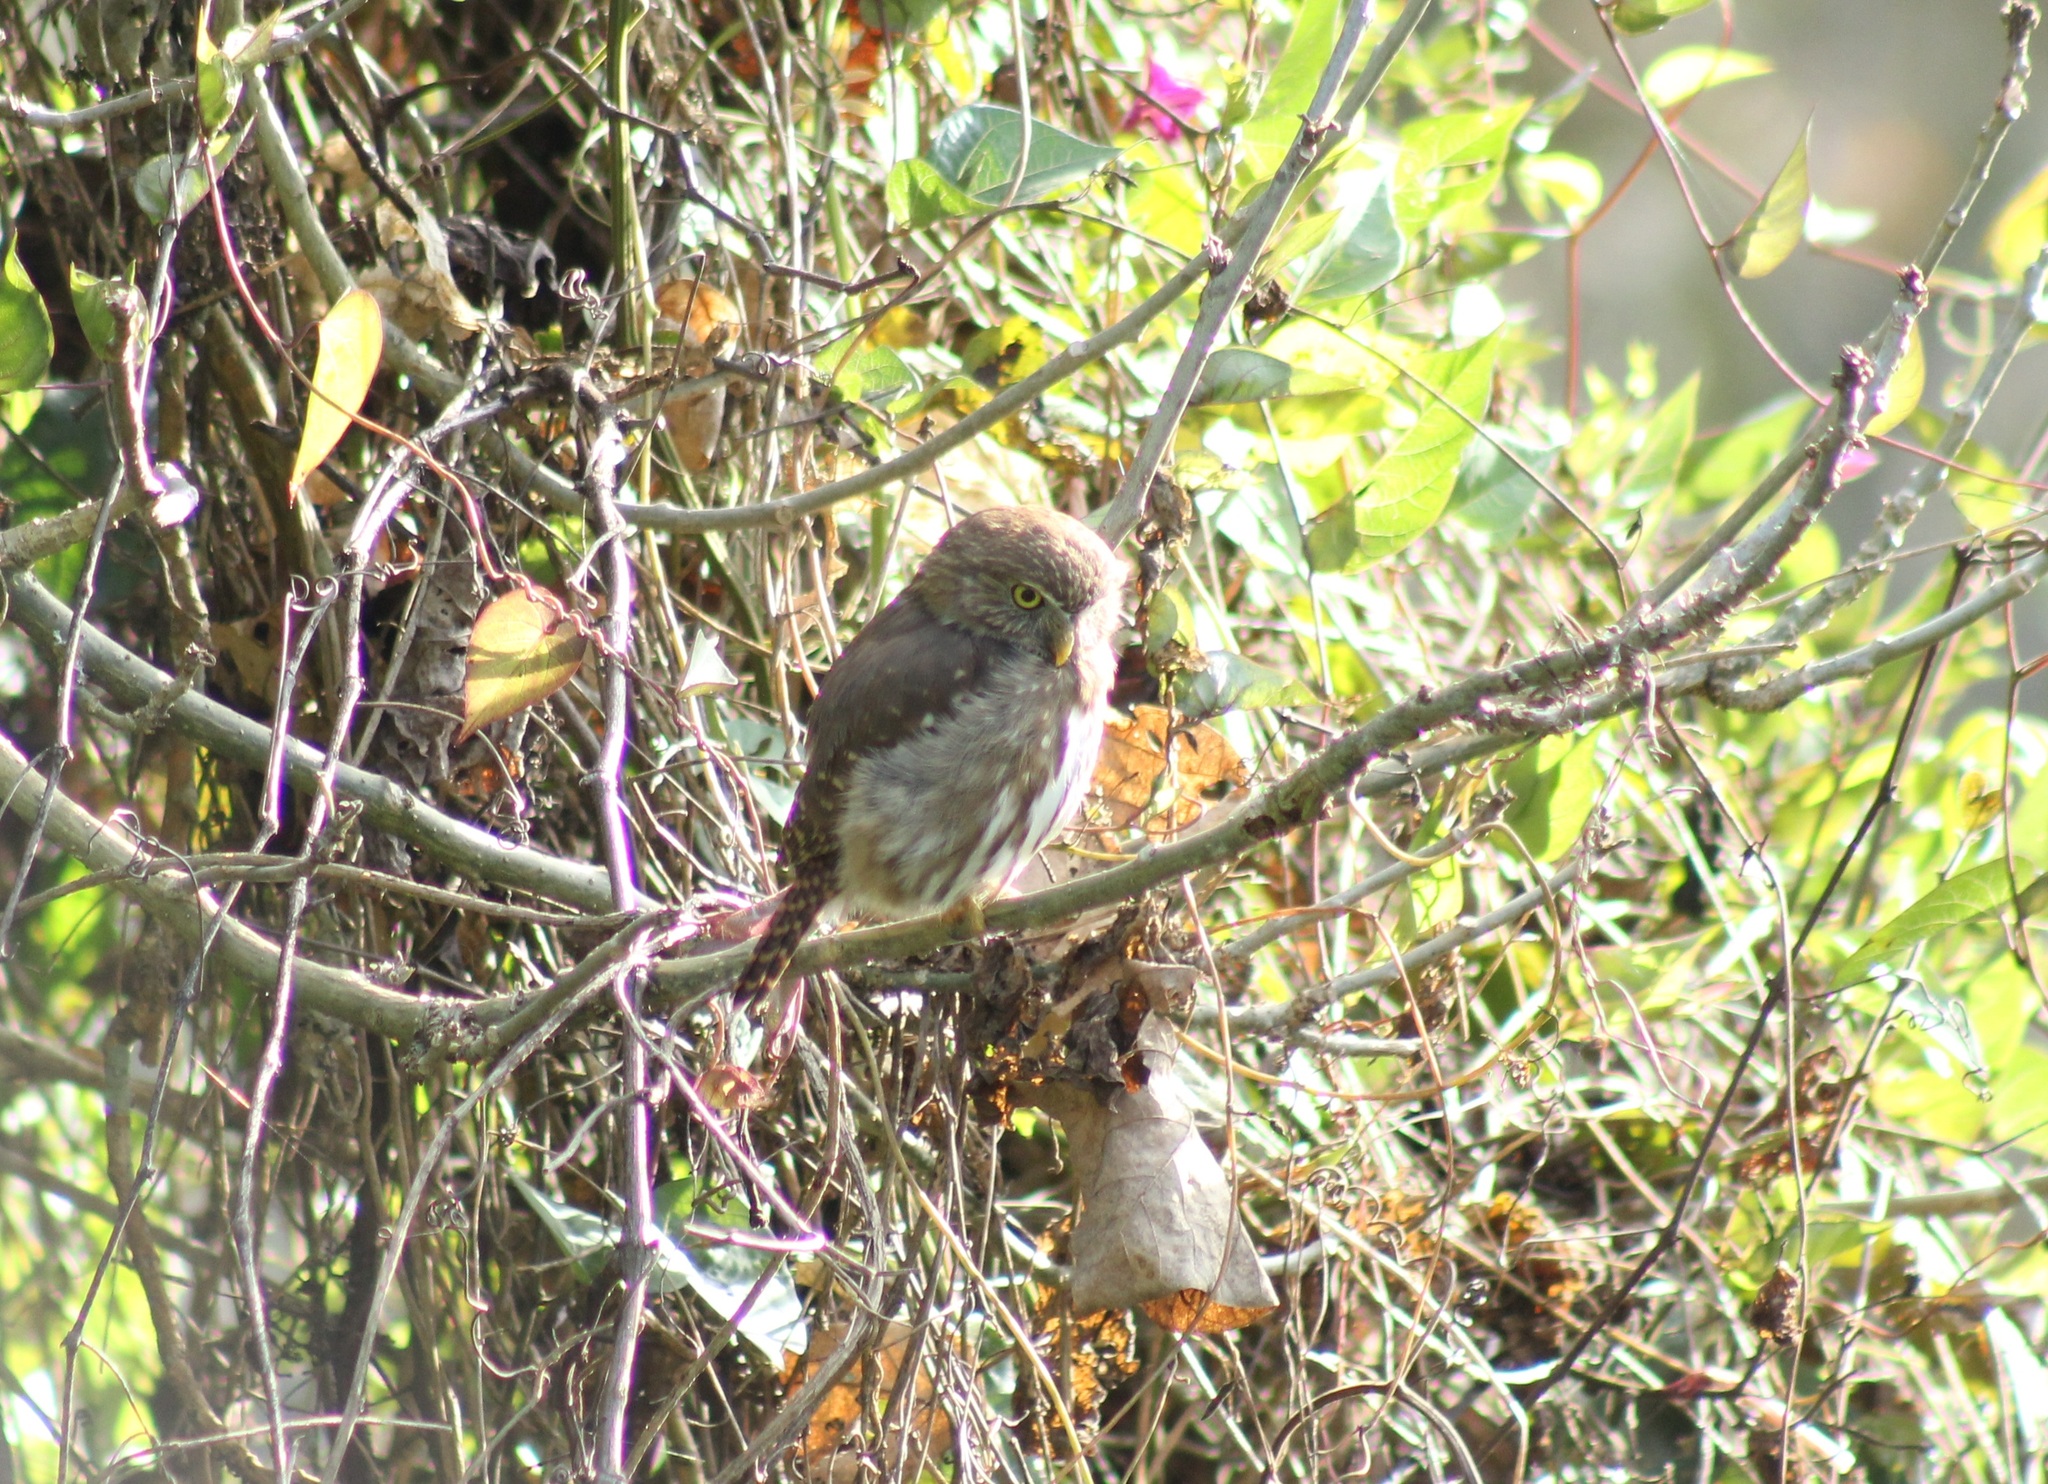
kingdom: Animalia
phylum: Chordata
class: Aves
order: Strigiformes
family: Strigidae
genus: Glaucidium
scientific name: Glaucidium brasilianum
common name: Ferruginous pygmy-owl
